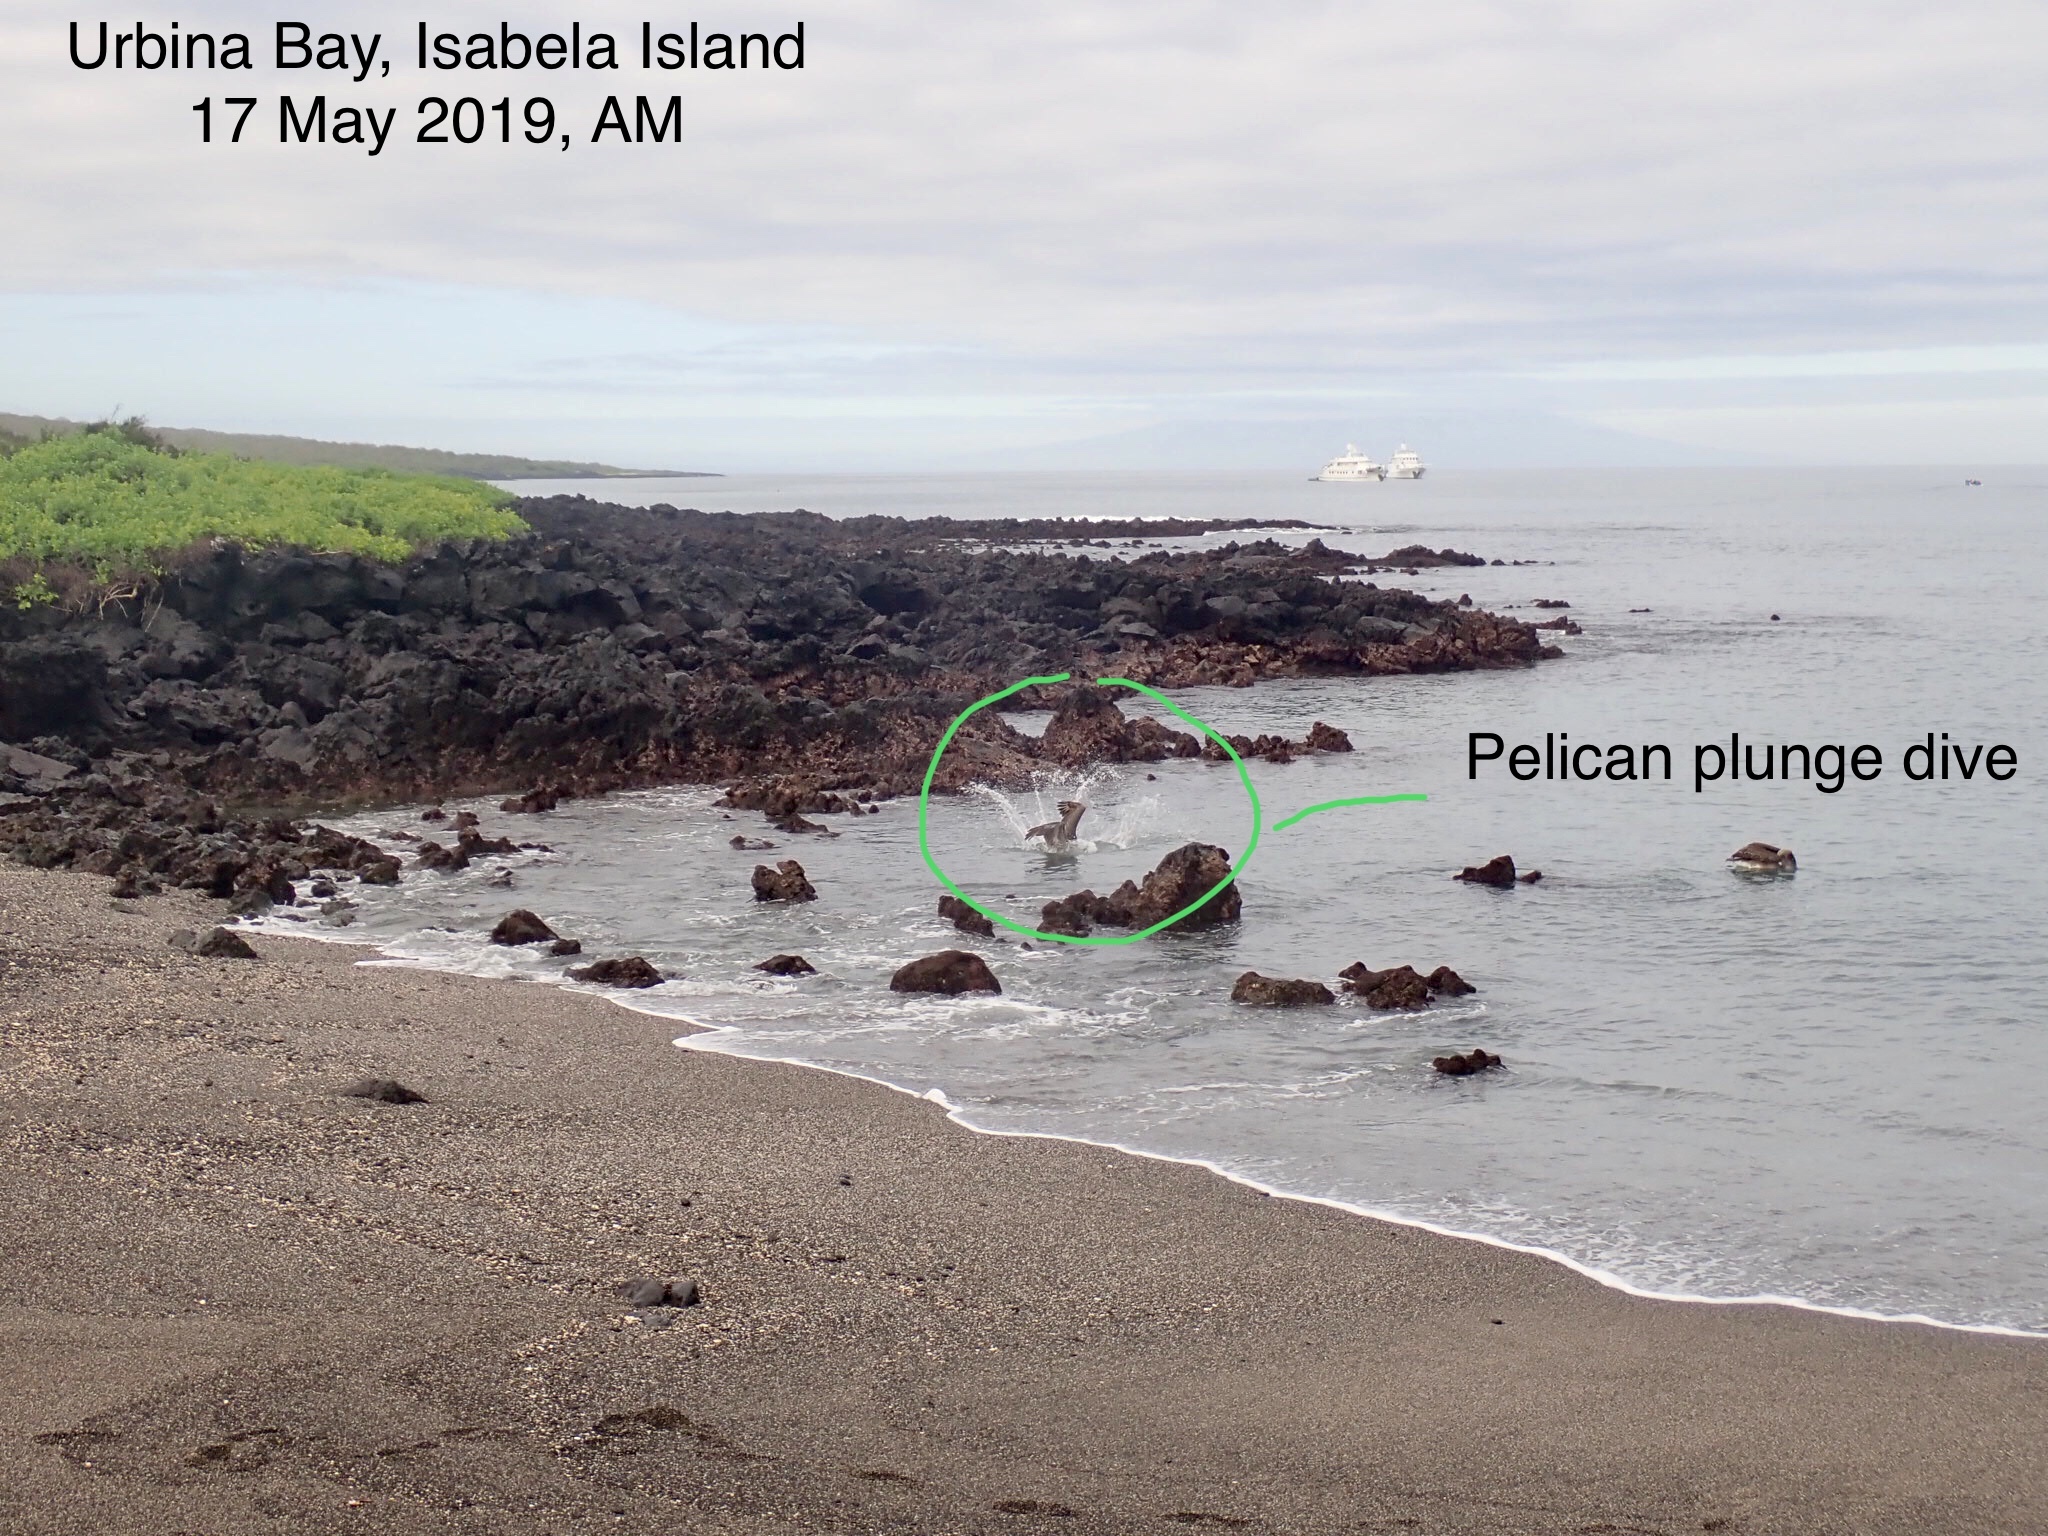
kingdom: Animalia
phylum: Chordata
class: Aves
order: Pelecaniformes
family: Pelecanidae
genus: Pelecanus
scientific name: Pelecanus occidentalis
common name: Brown pelican
